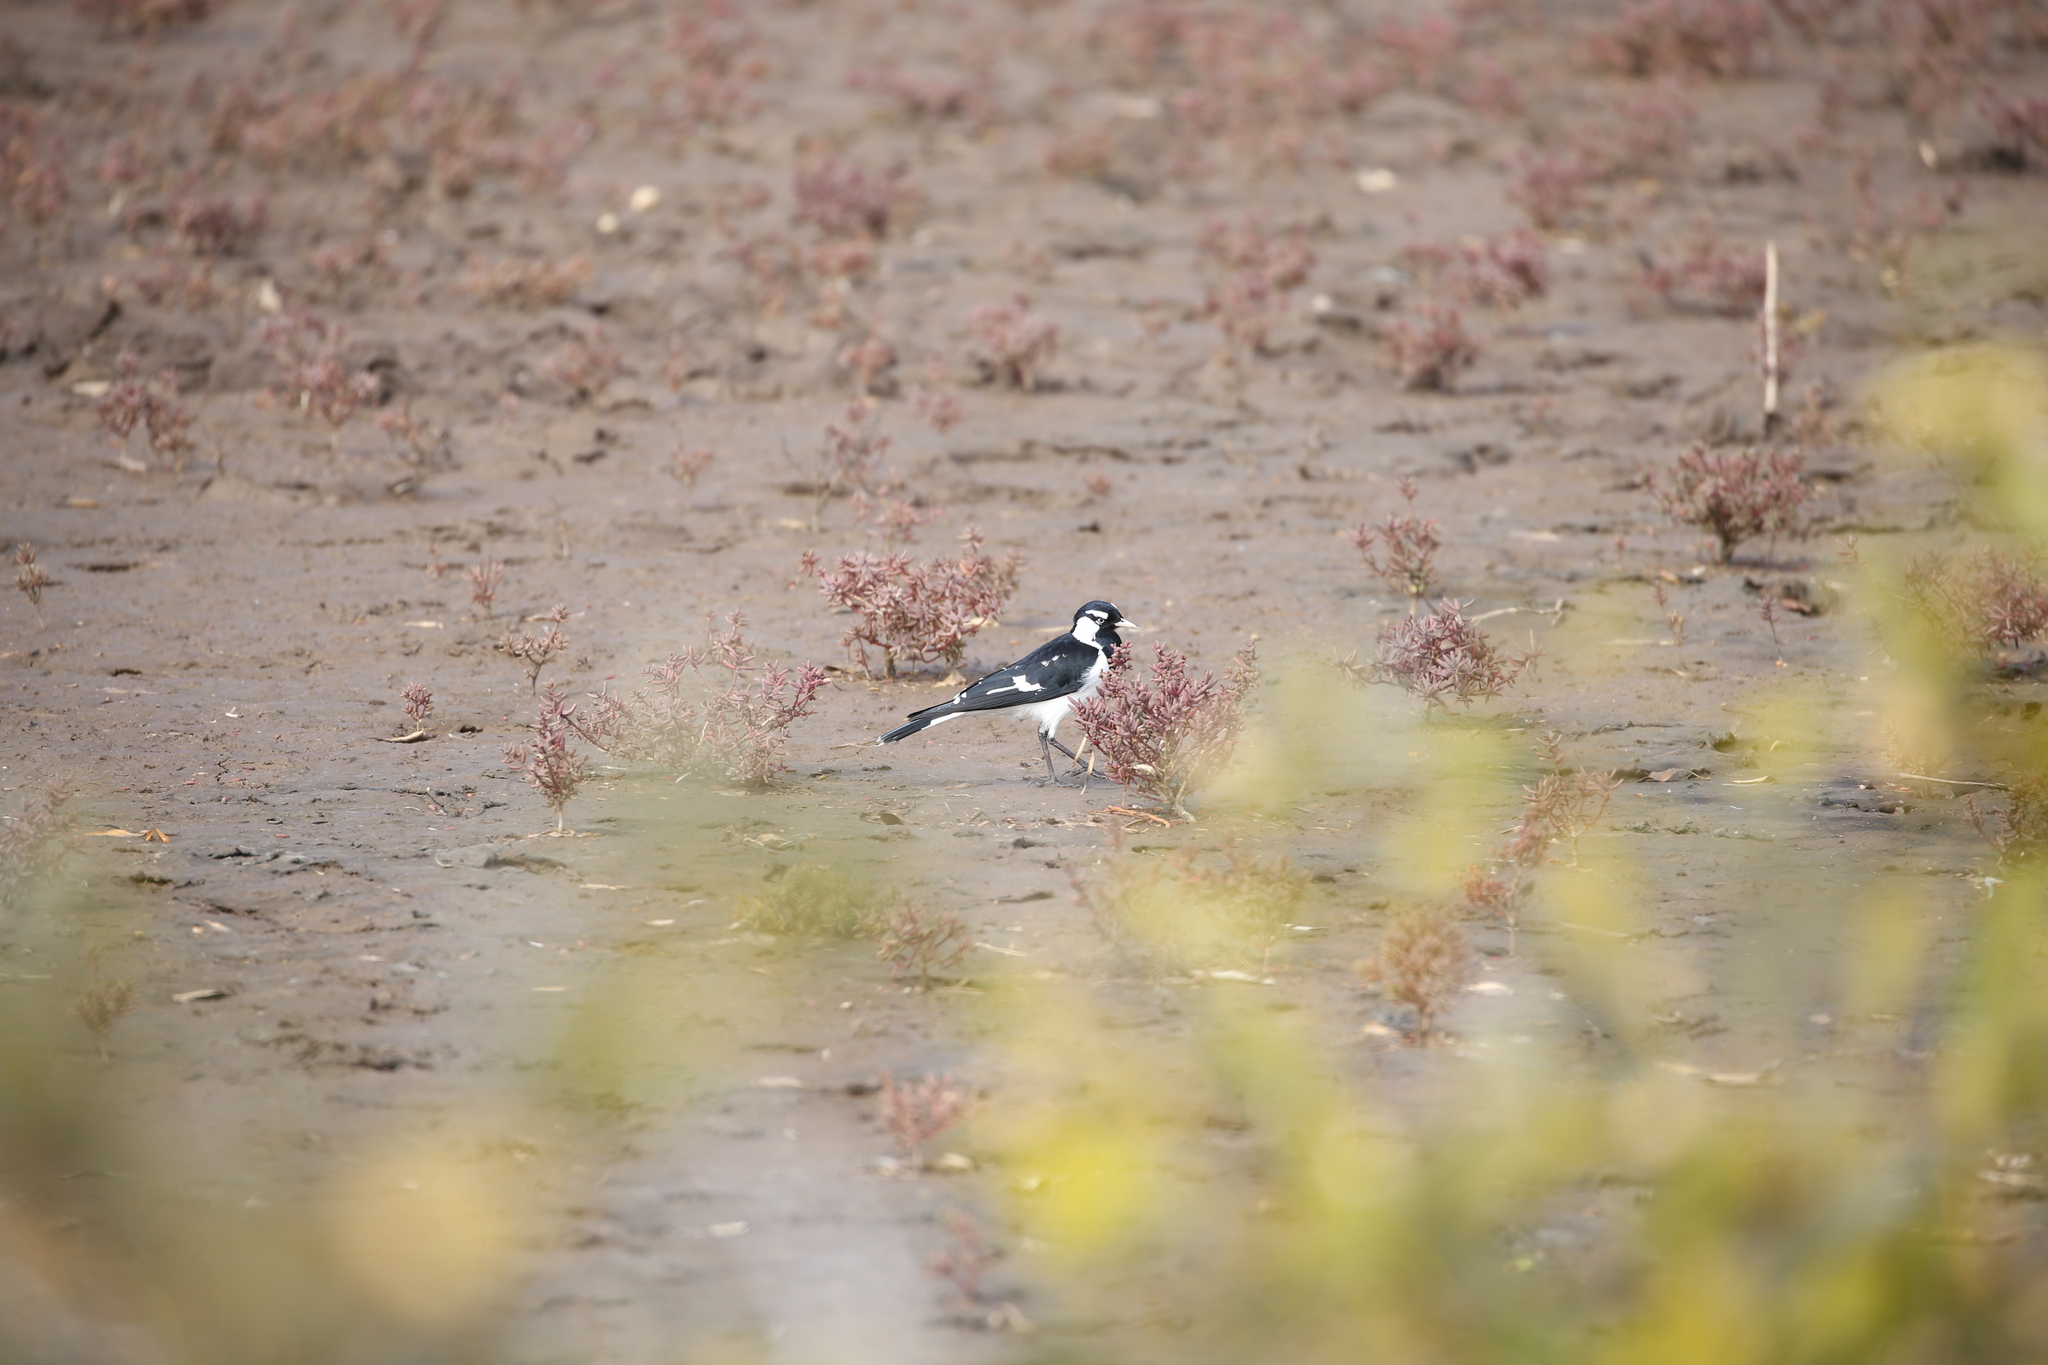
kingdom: Animalia
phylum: Chordata
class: Aves
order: Passeriformes
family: Monarchidae
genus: Grallina
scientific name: Grallina cyanoleuca
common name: Magpie-lark
